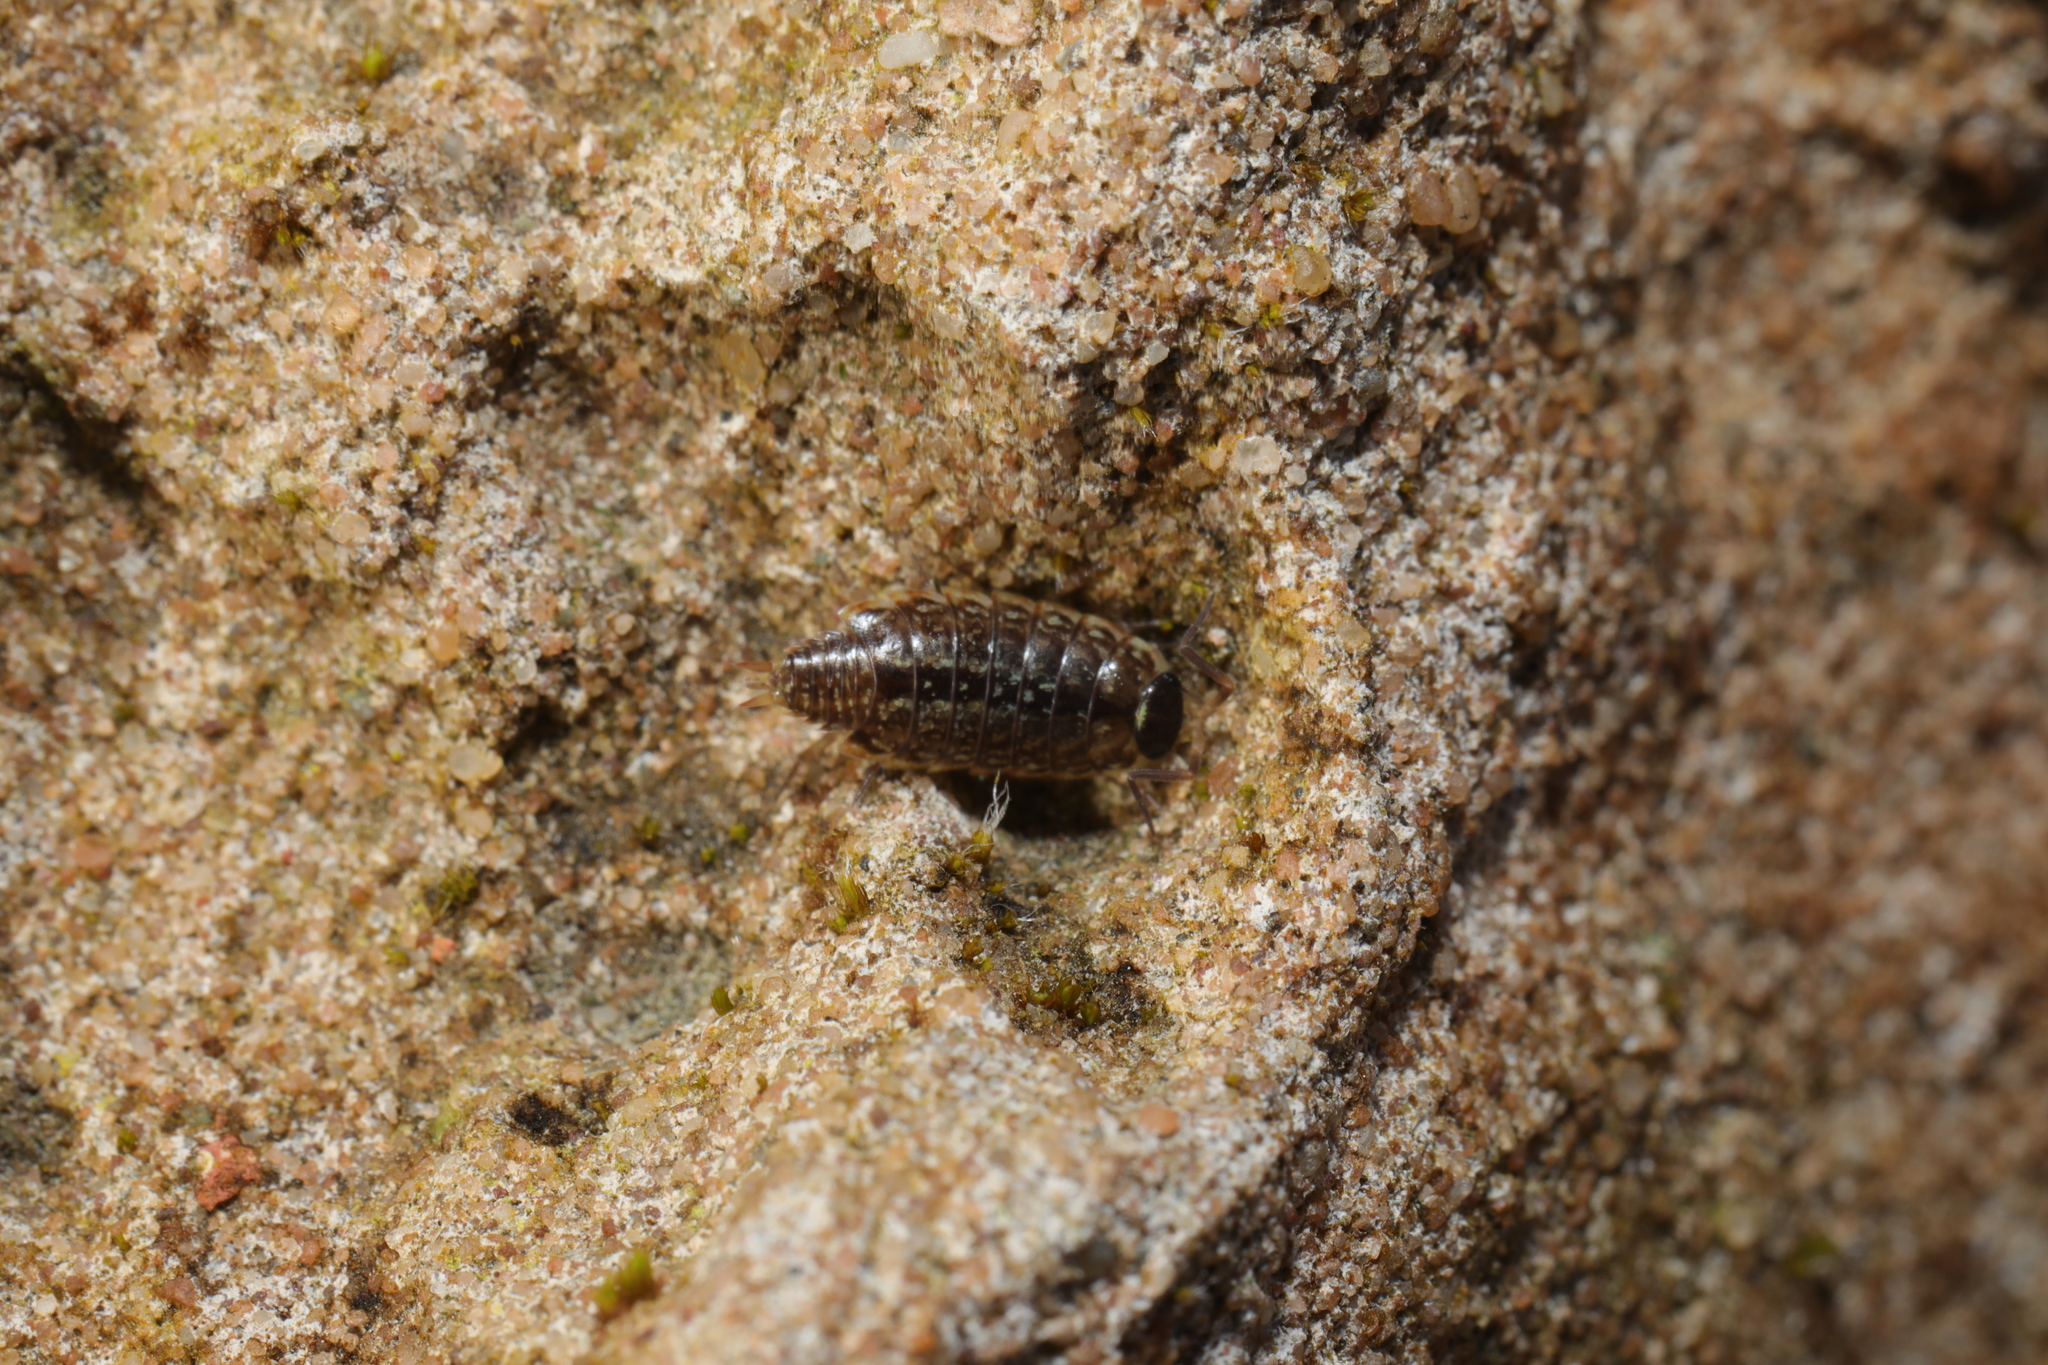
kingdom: Animalia
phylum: Arthropoda
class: Malacostraca
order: Isopoda
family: Philosciidae
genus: Philoscia
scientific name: Philoscia muscorum
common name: Common striped woodlouse
